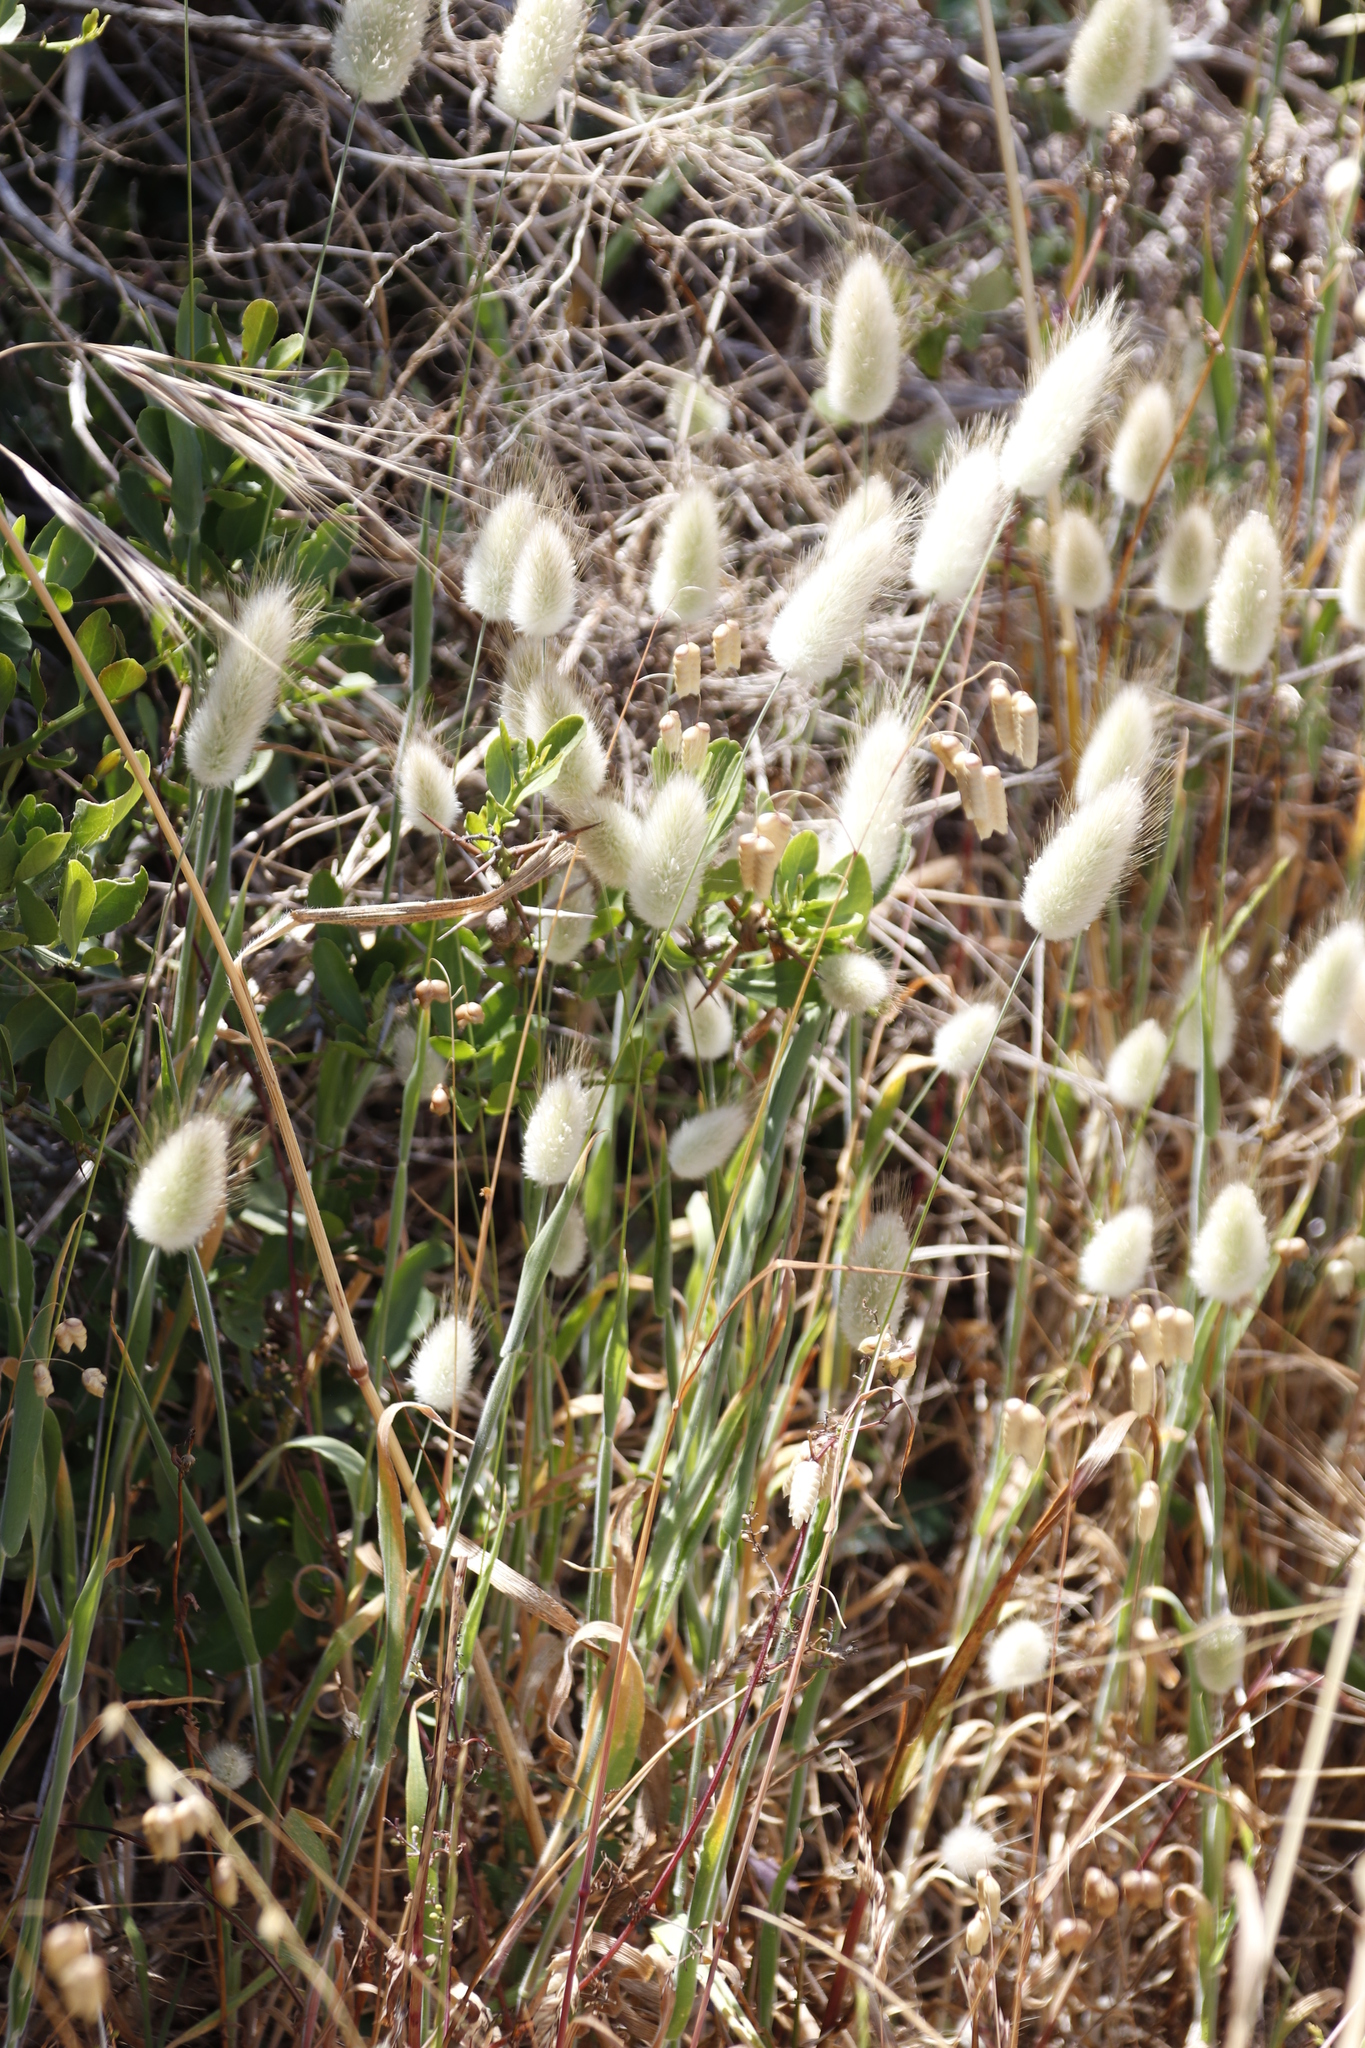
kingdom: Plantae
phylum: Tracheophyta
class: Liliopsida
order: Poales
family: Poaceae
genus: Lagurus
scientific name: Lagurus ovatus
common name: Hare's-tail
